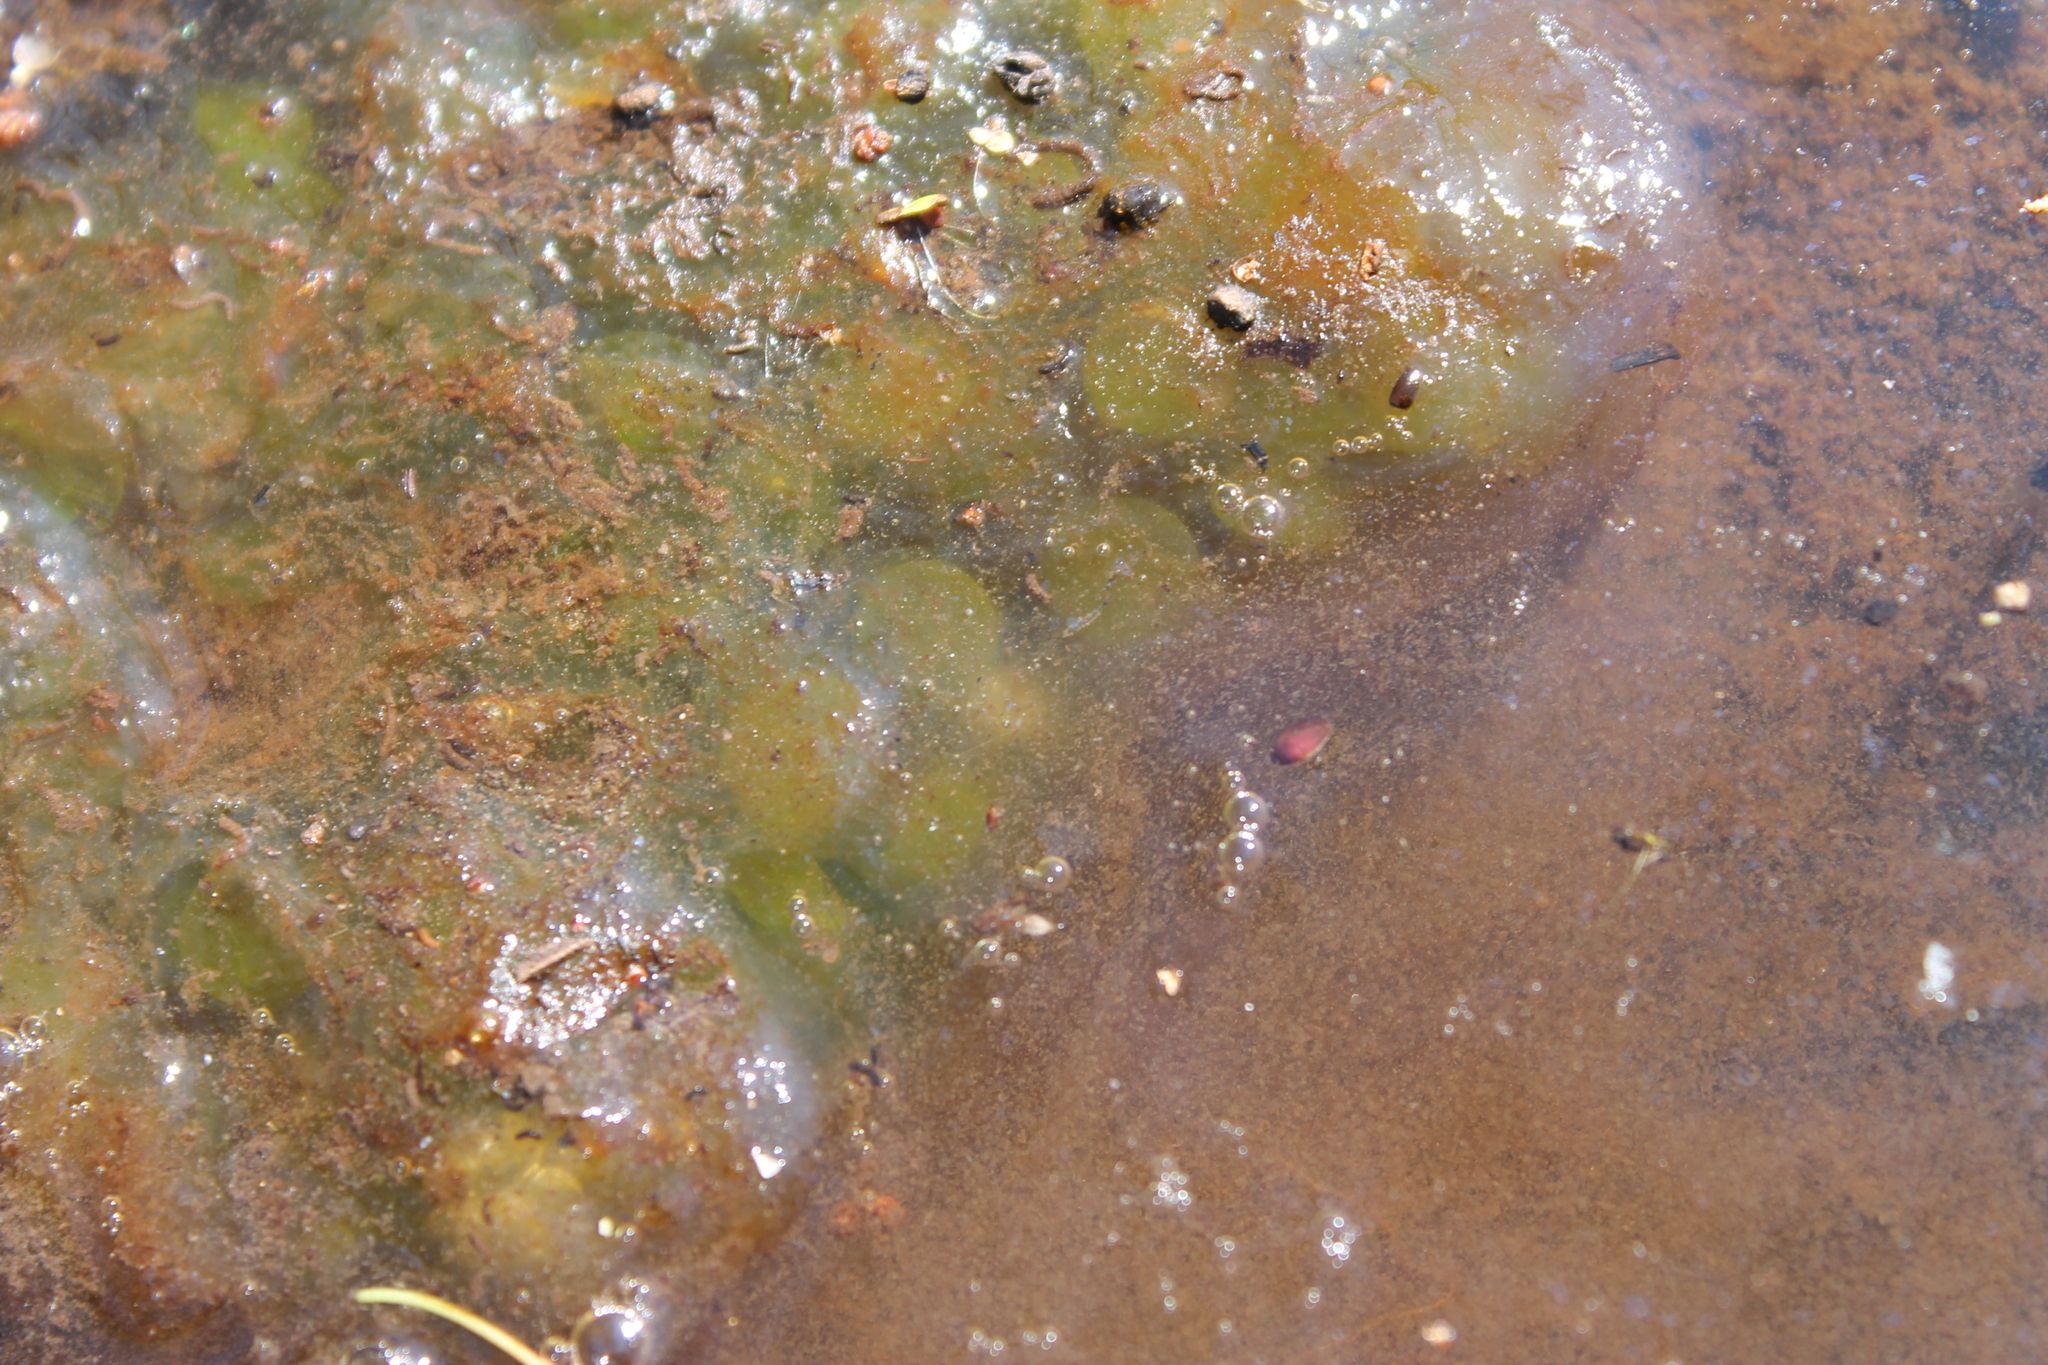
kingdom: Animalia
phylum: Chordata
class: Amphibia
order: Caudata
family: Ambystomatidae
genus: Ambystoma
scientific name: Ambystoma maculatum
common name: Spotted salamander
